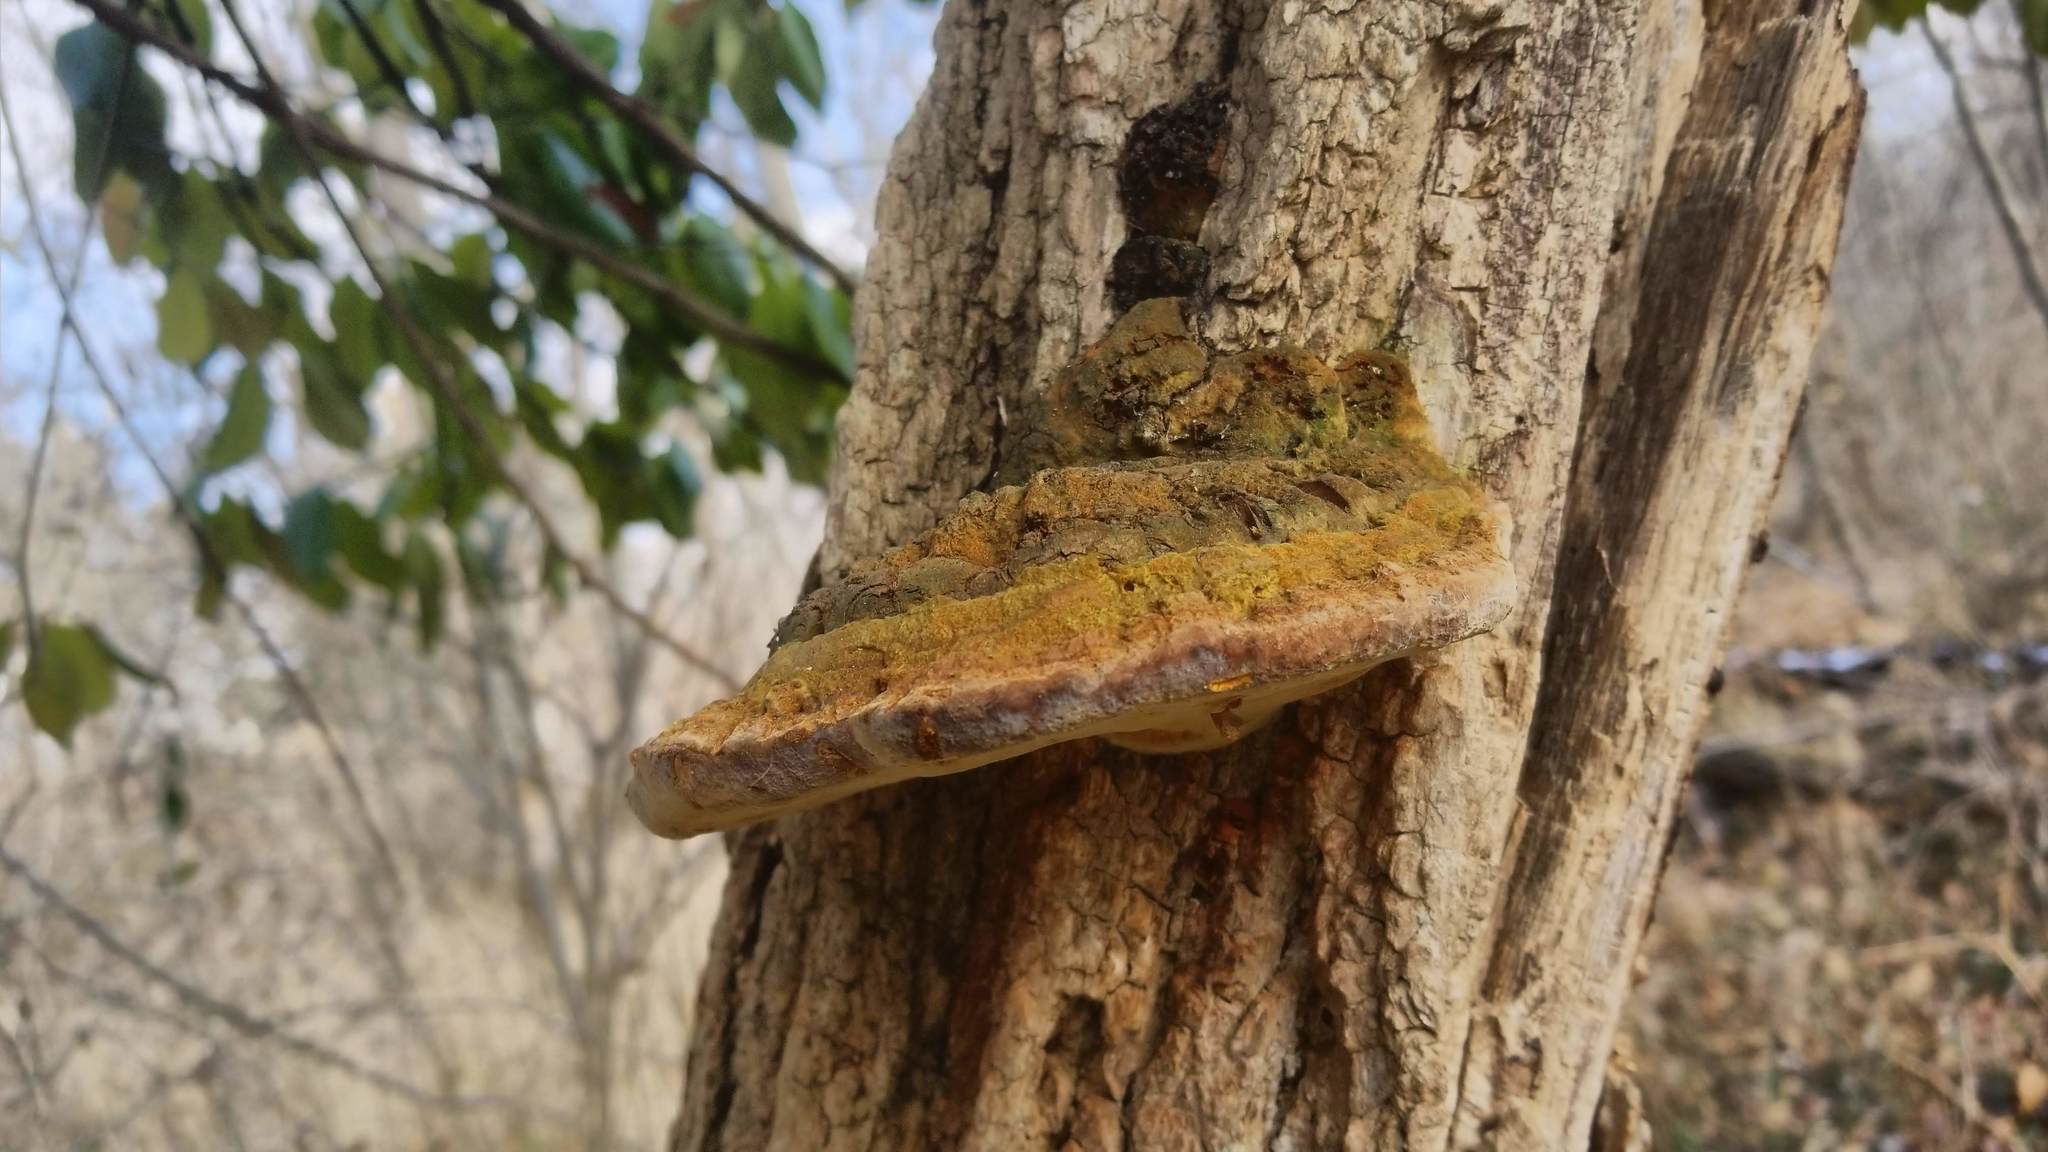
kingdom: Fungi
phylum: Basidiomycota
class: Agaricomycetes
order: Hymenochaetales
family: Hymenochaetaceae
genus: Phellinus
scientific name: Phellinus robiniae
